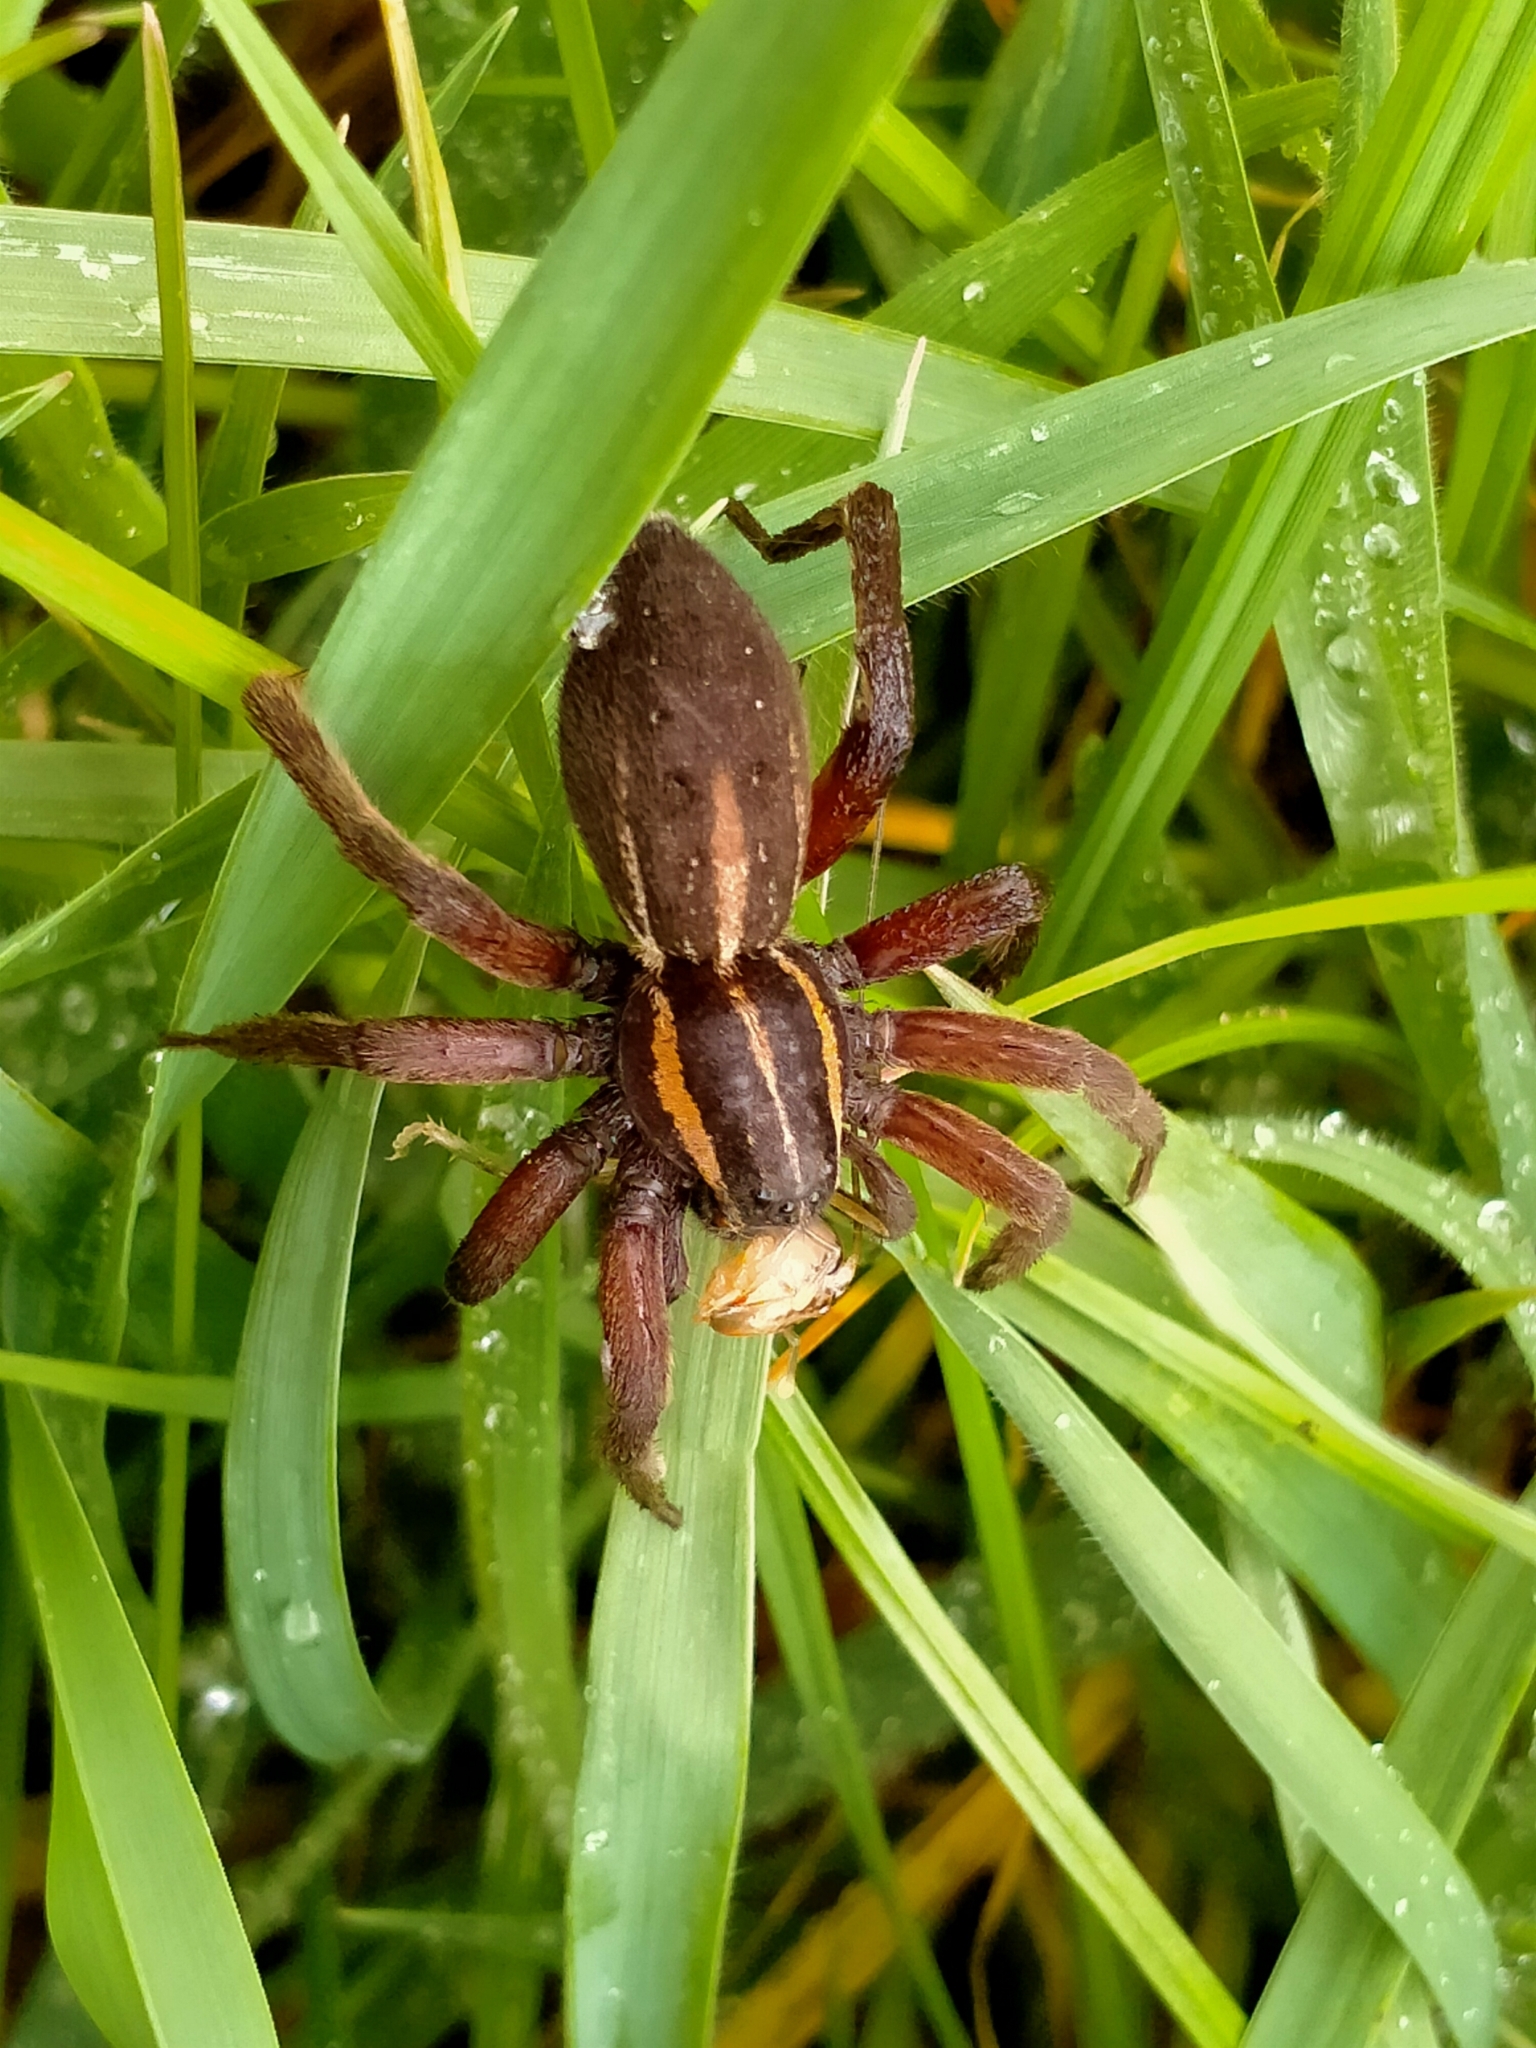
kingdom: Animalia
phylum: Arthropoda
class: Arachnida
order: Araneae
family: Pisauridae
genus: Dolomedes
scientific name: Dolomedes minor
